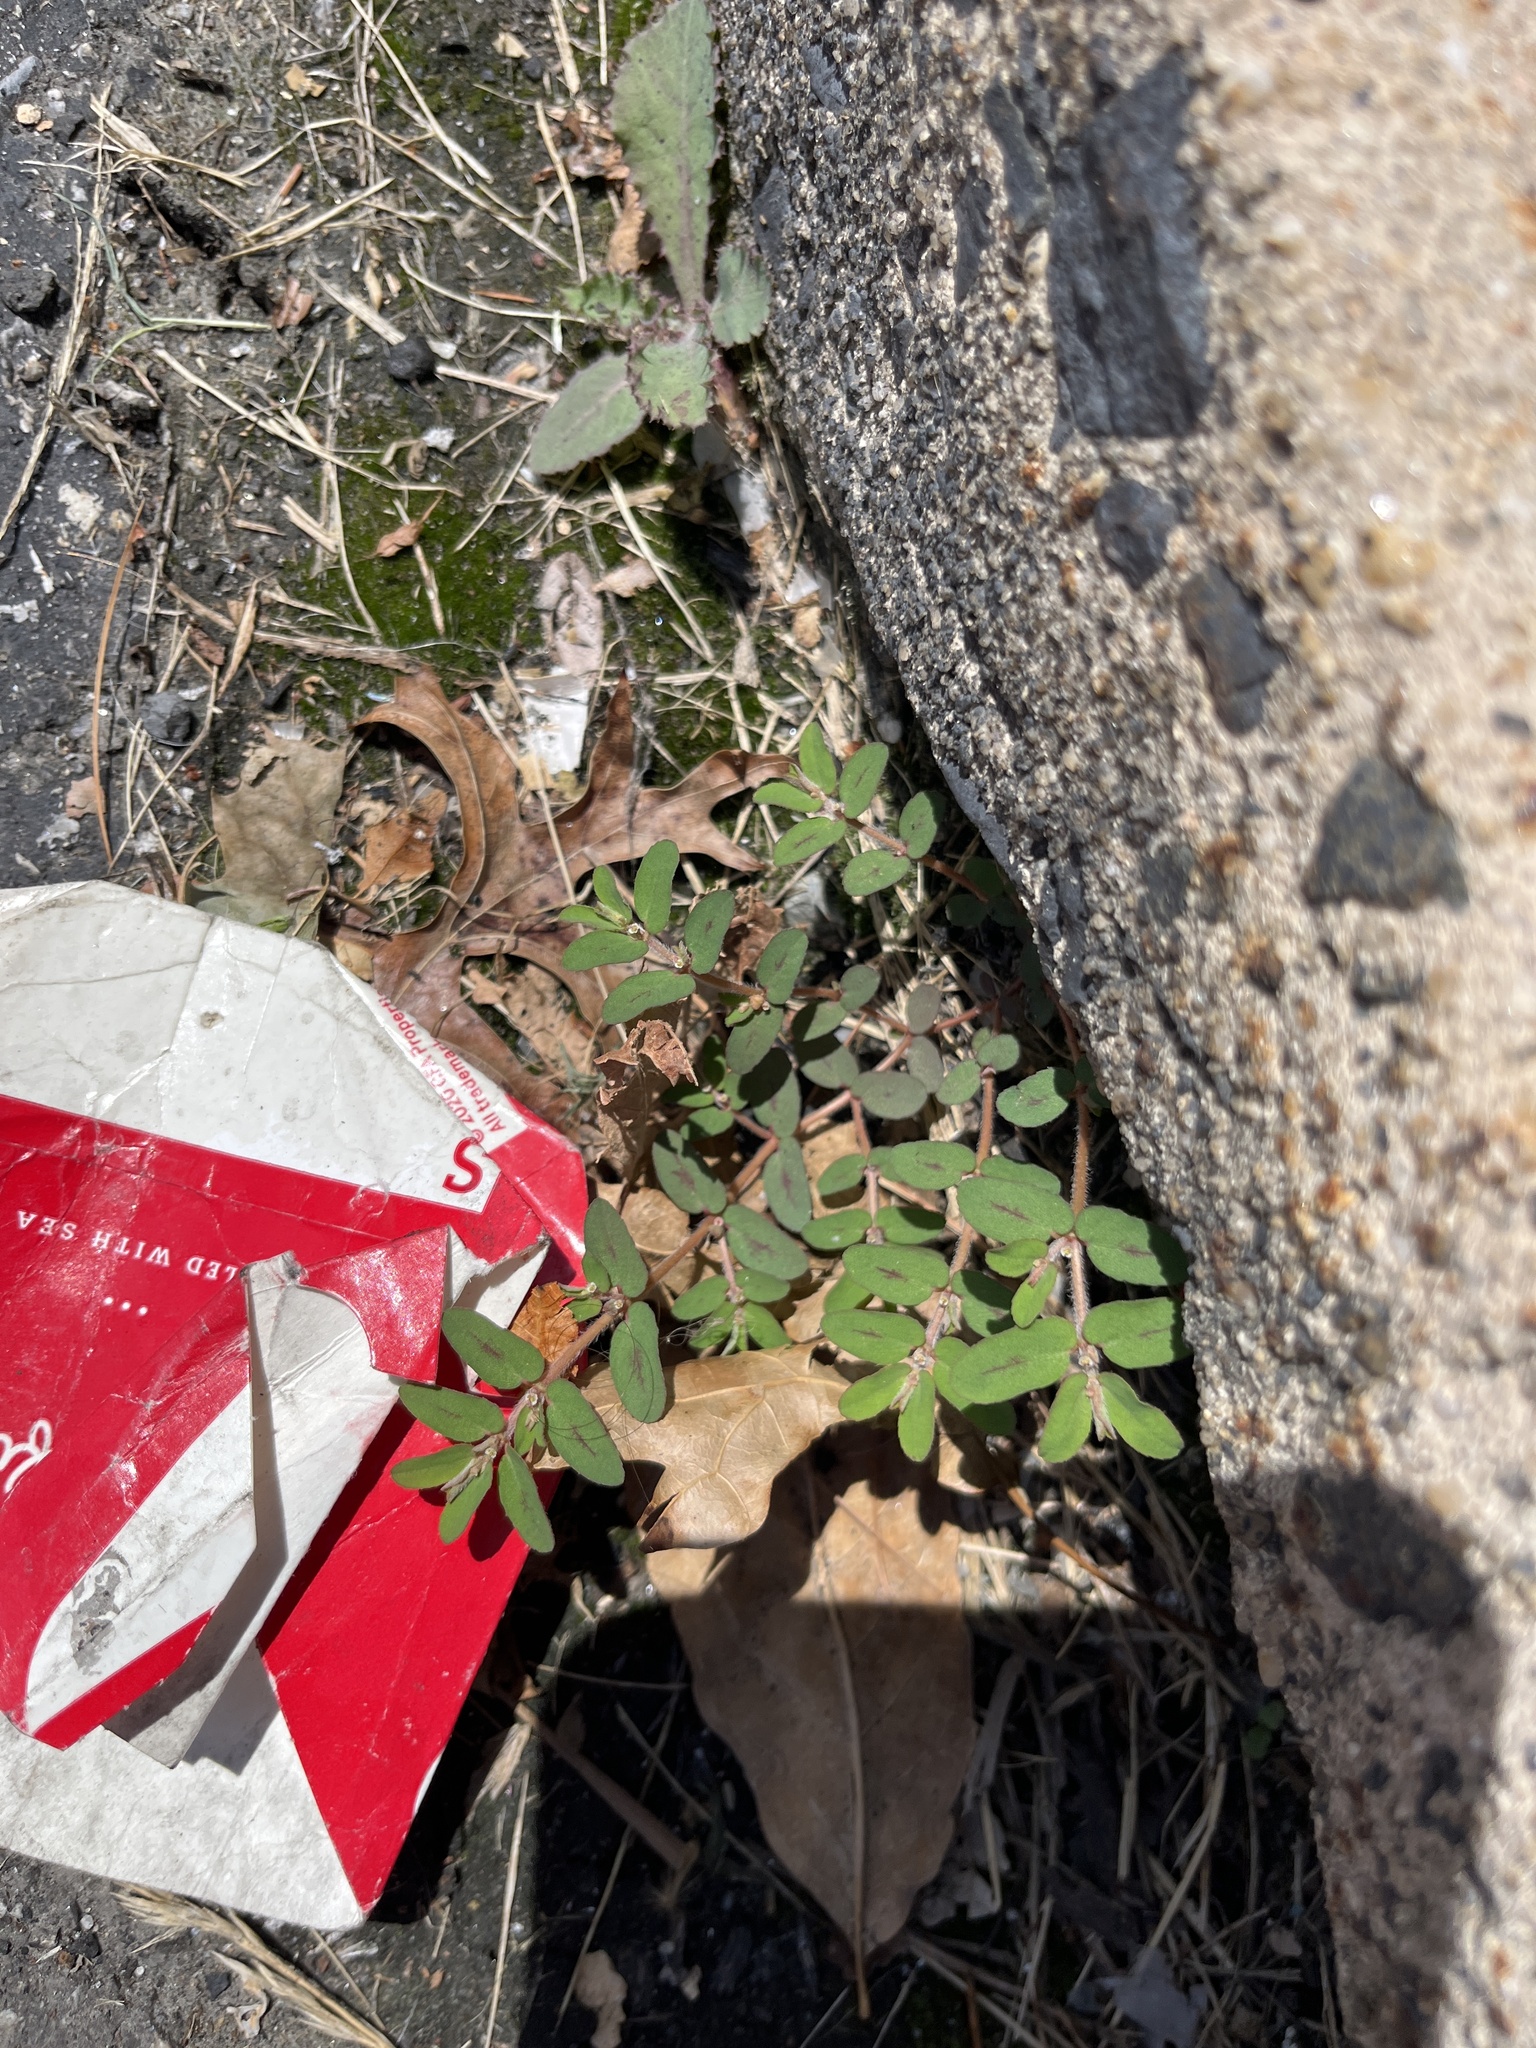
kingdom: Plantae
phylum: Tracheophyta
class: Magnoliopsida
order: Malpighiales
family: Euphorbiaceae
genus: Euphorbia
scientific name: Euphorbia maculata
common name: Spotted spurge
